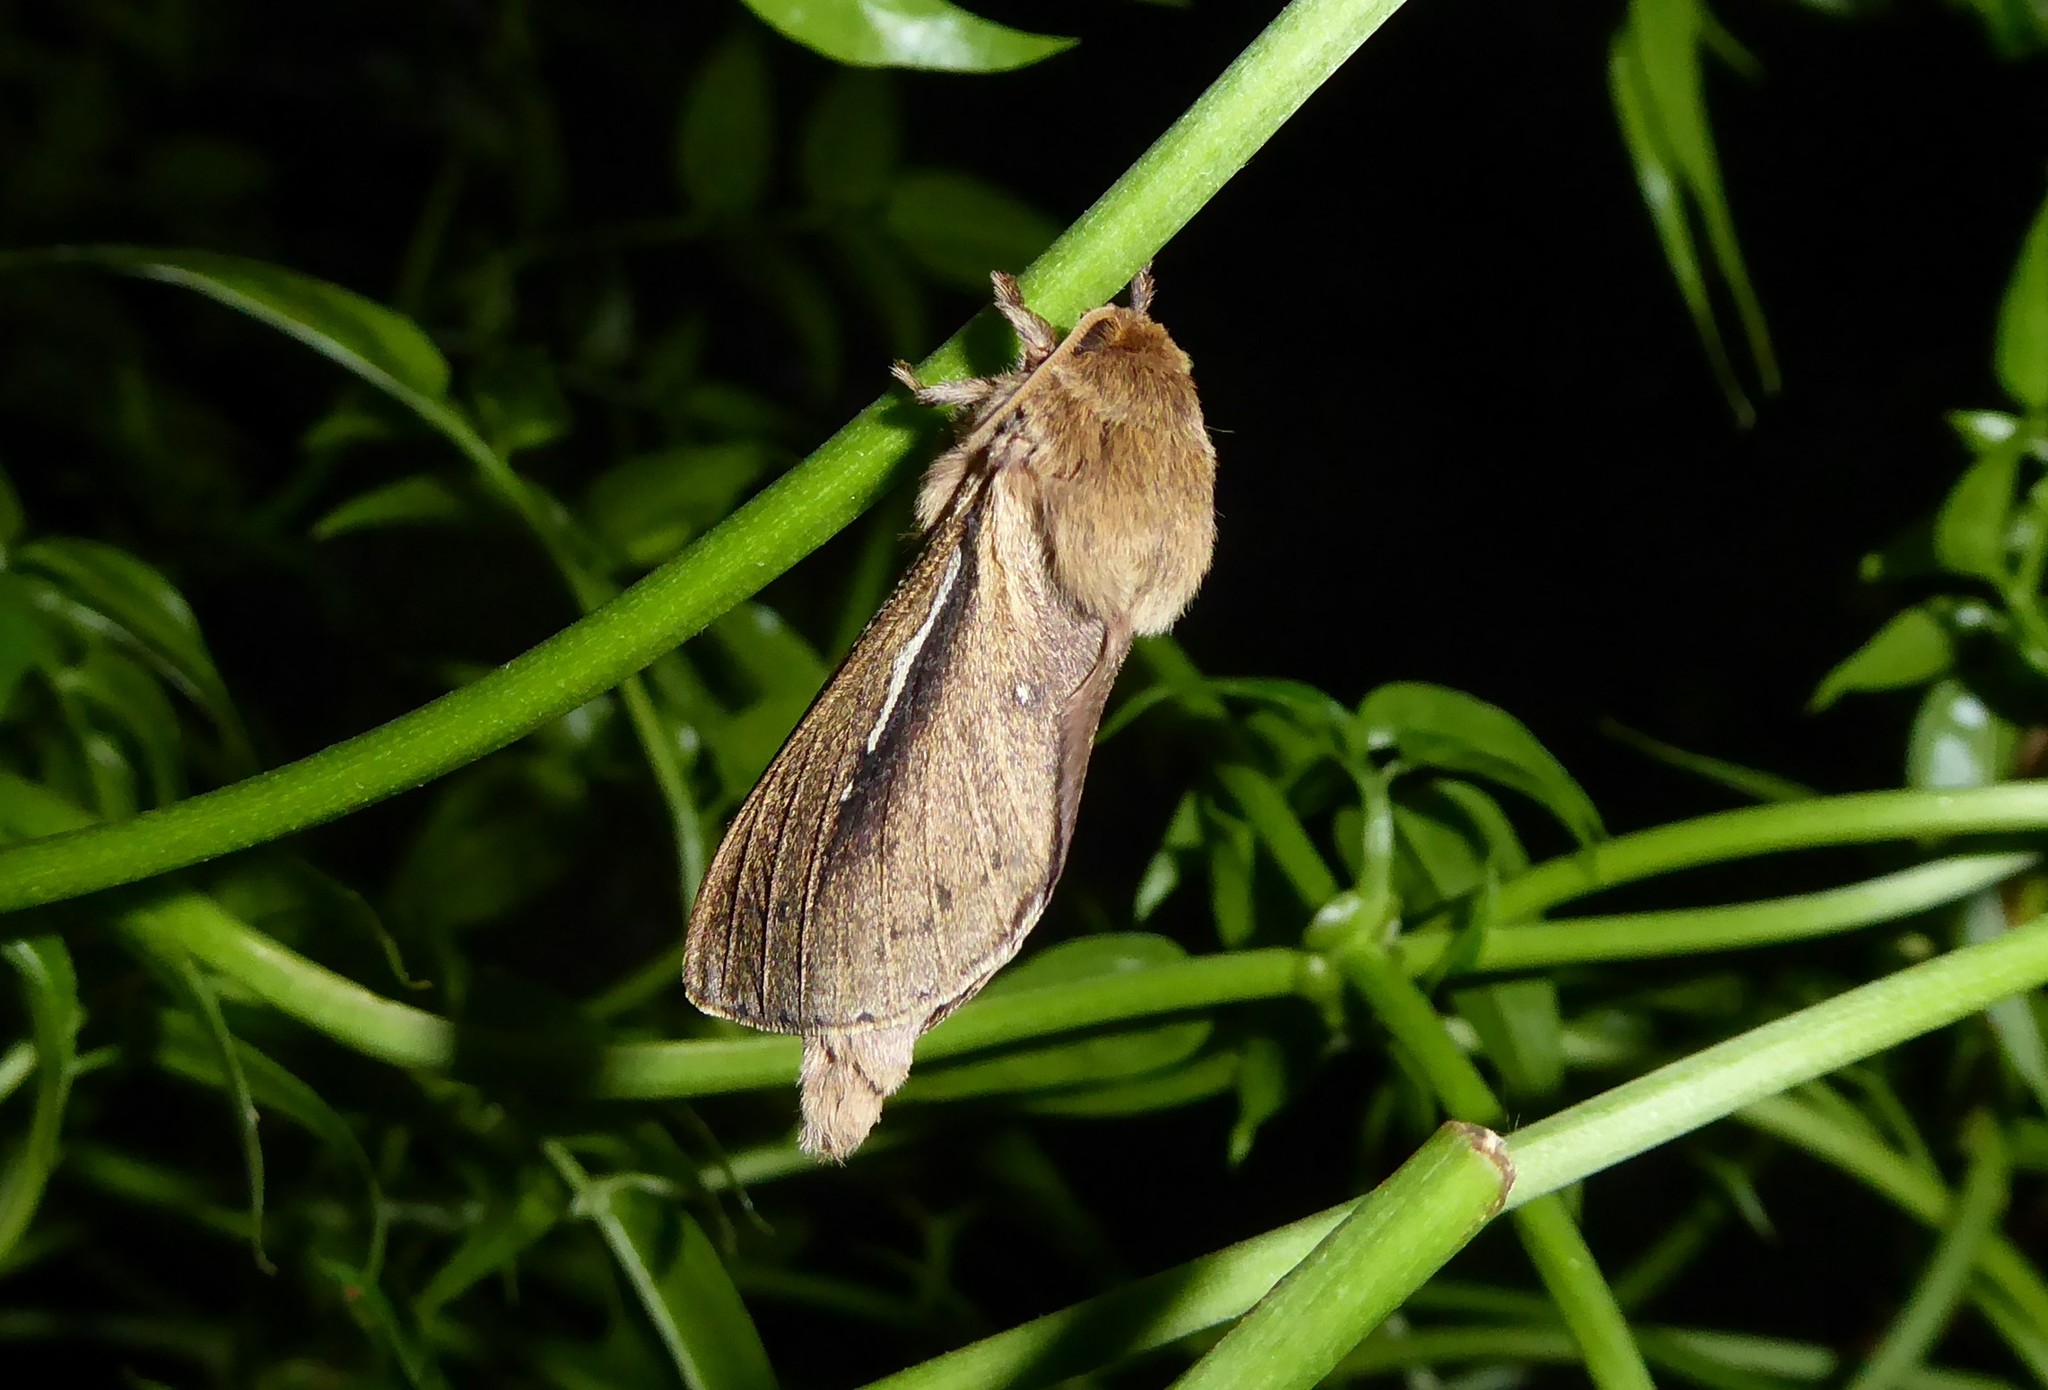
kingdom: Animalia
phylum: Arthropoda
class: Insecta
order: Lepidoptera
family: Hepialidae
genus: Wiseana
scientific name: Wiseana umbraculatus
